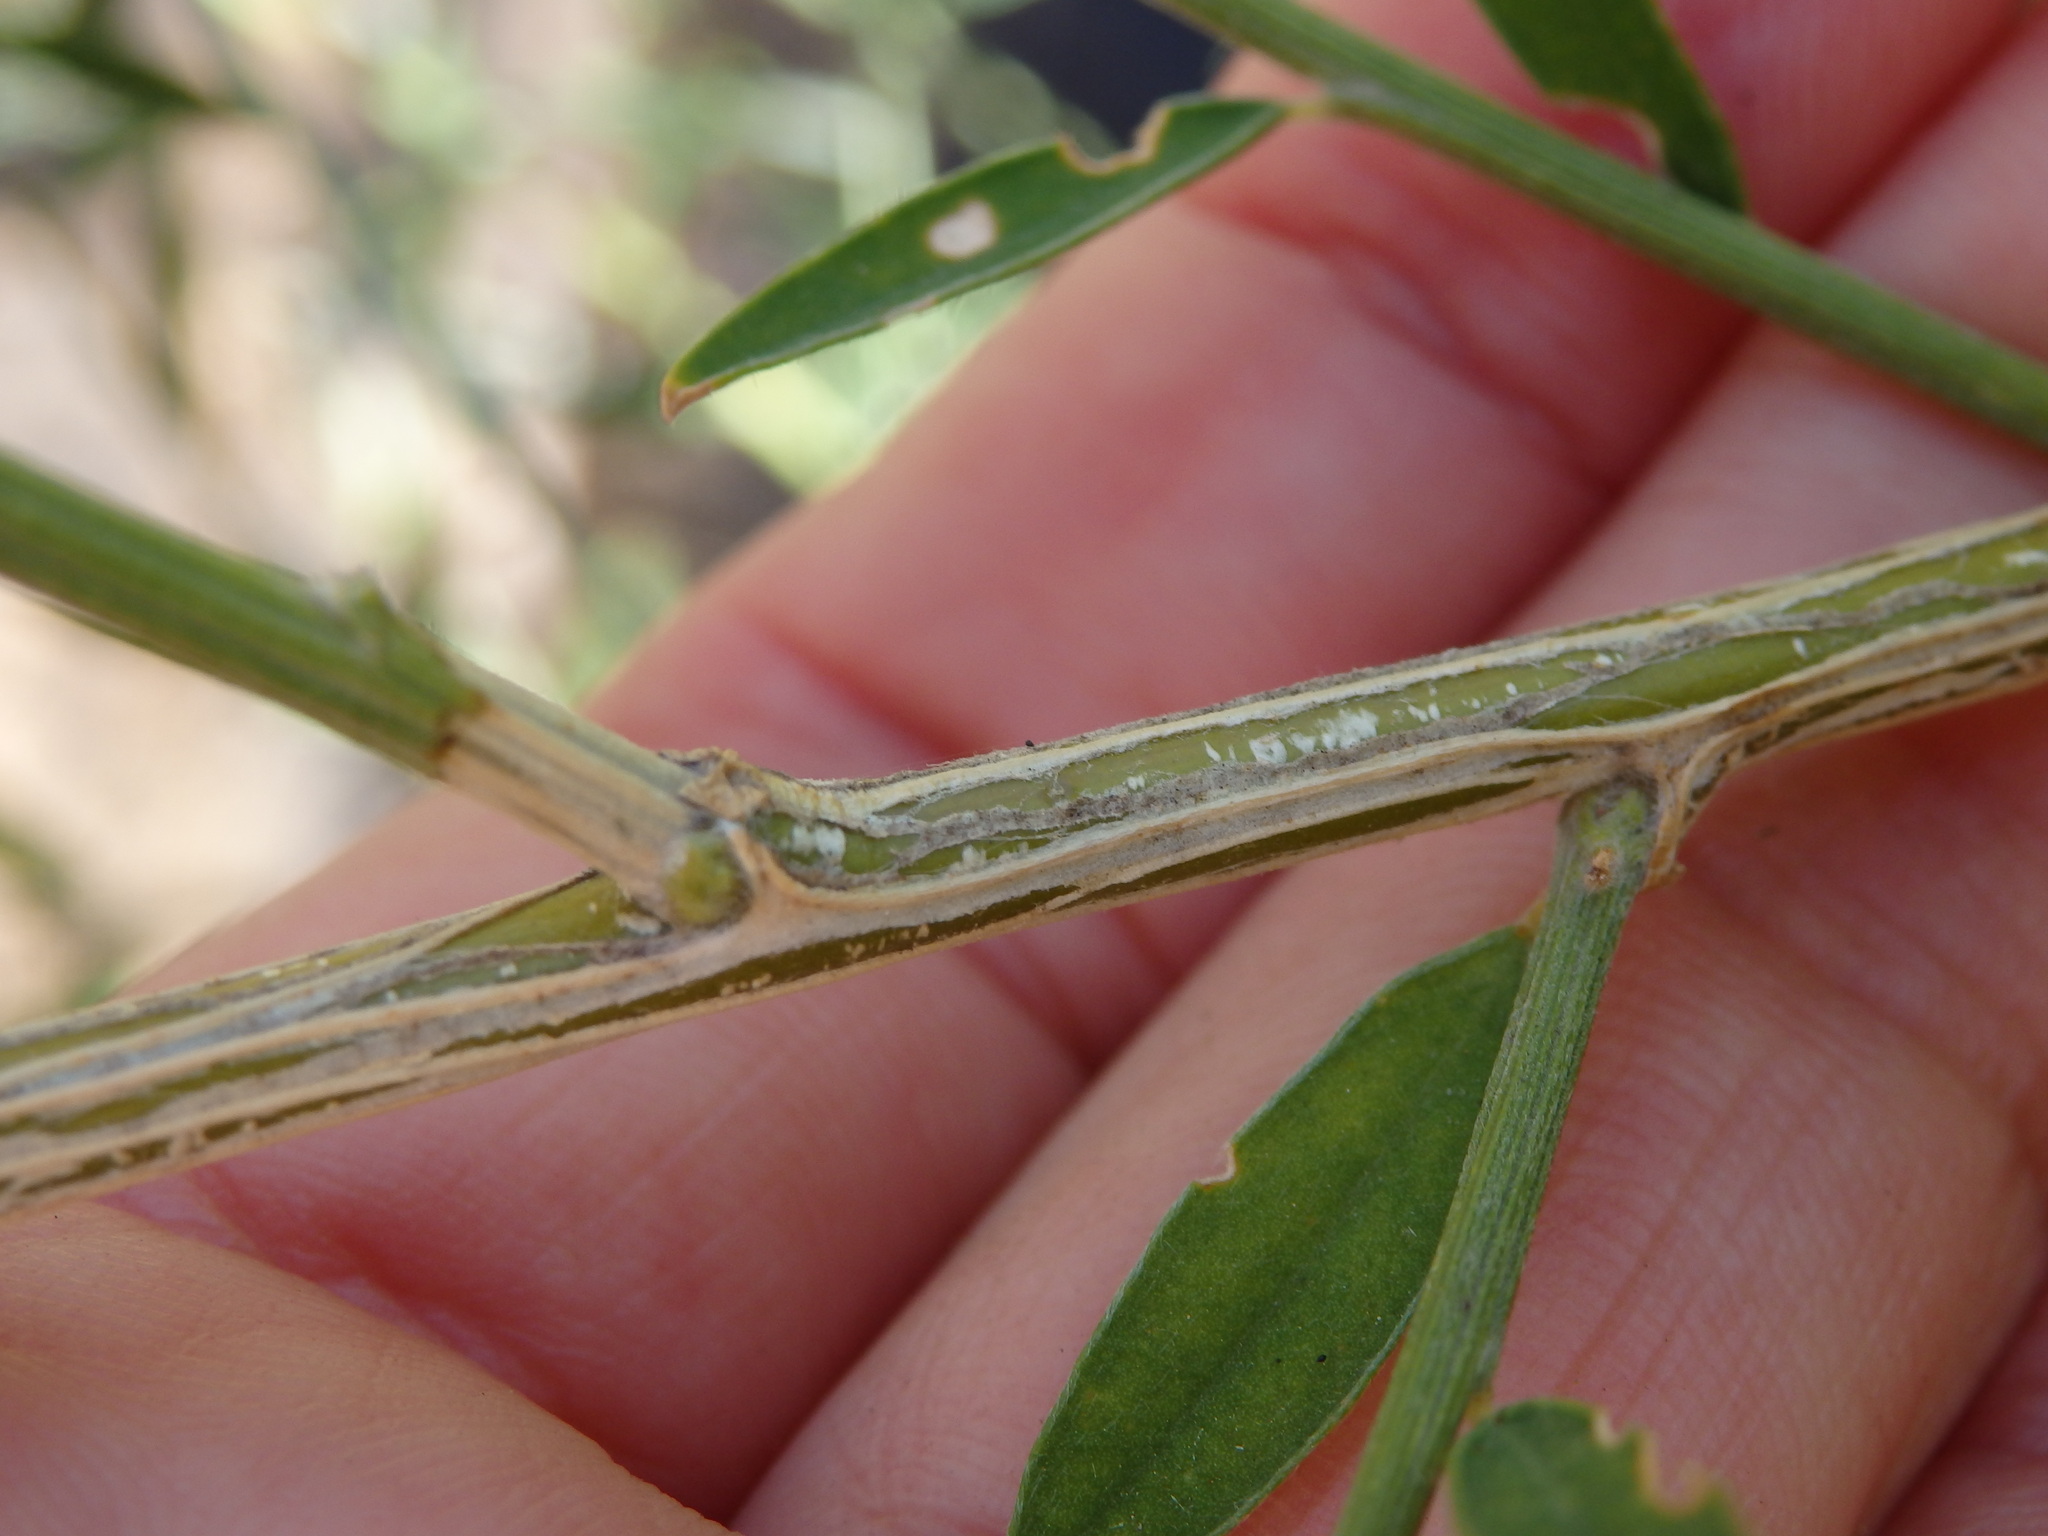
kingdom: Plantae
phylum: Tracheophyta
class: Magnoliopsida
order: Fabales
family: Fabaceae
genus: Genista
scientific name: Genista florida
